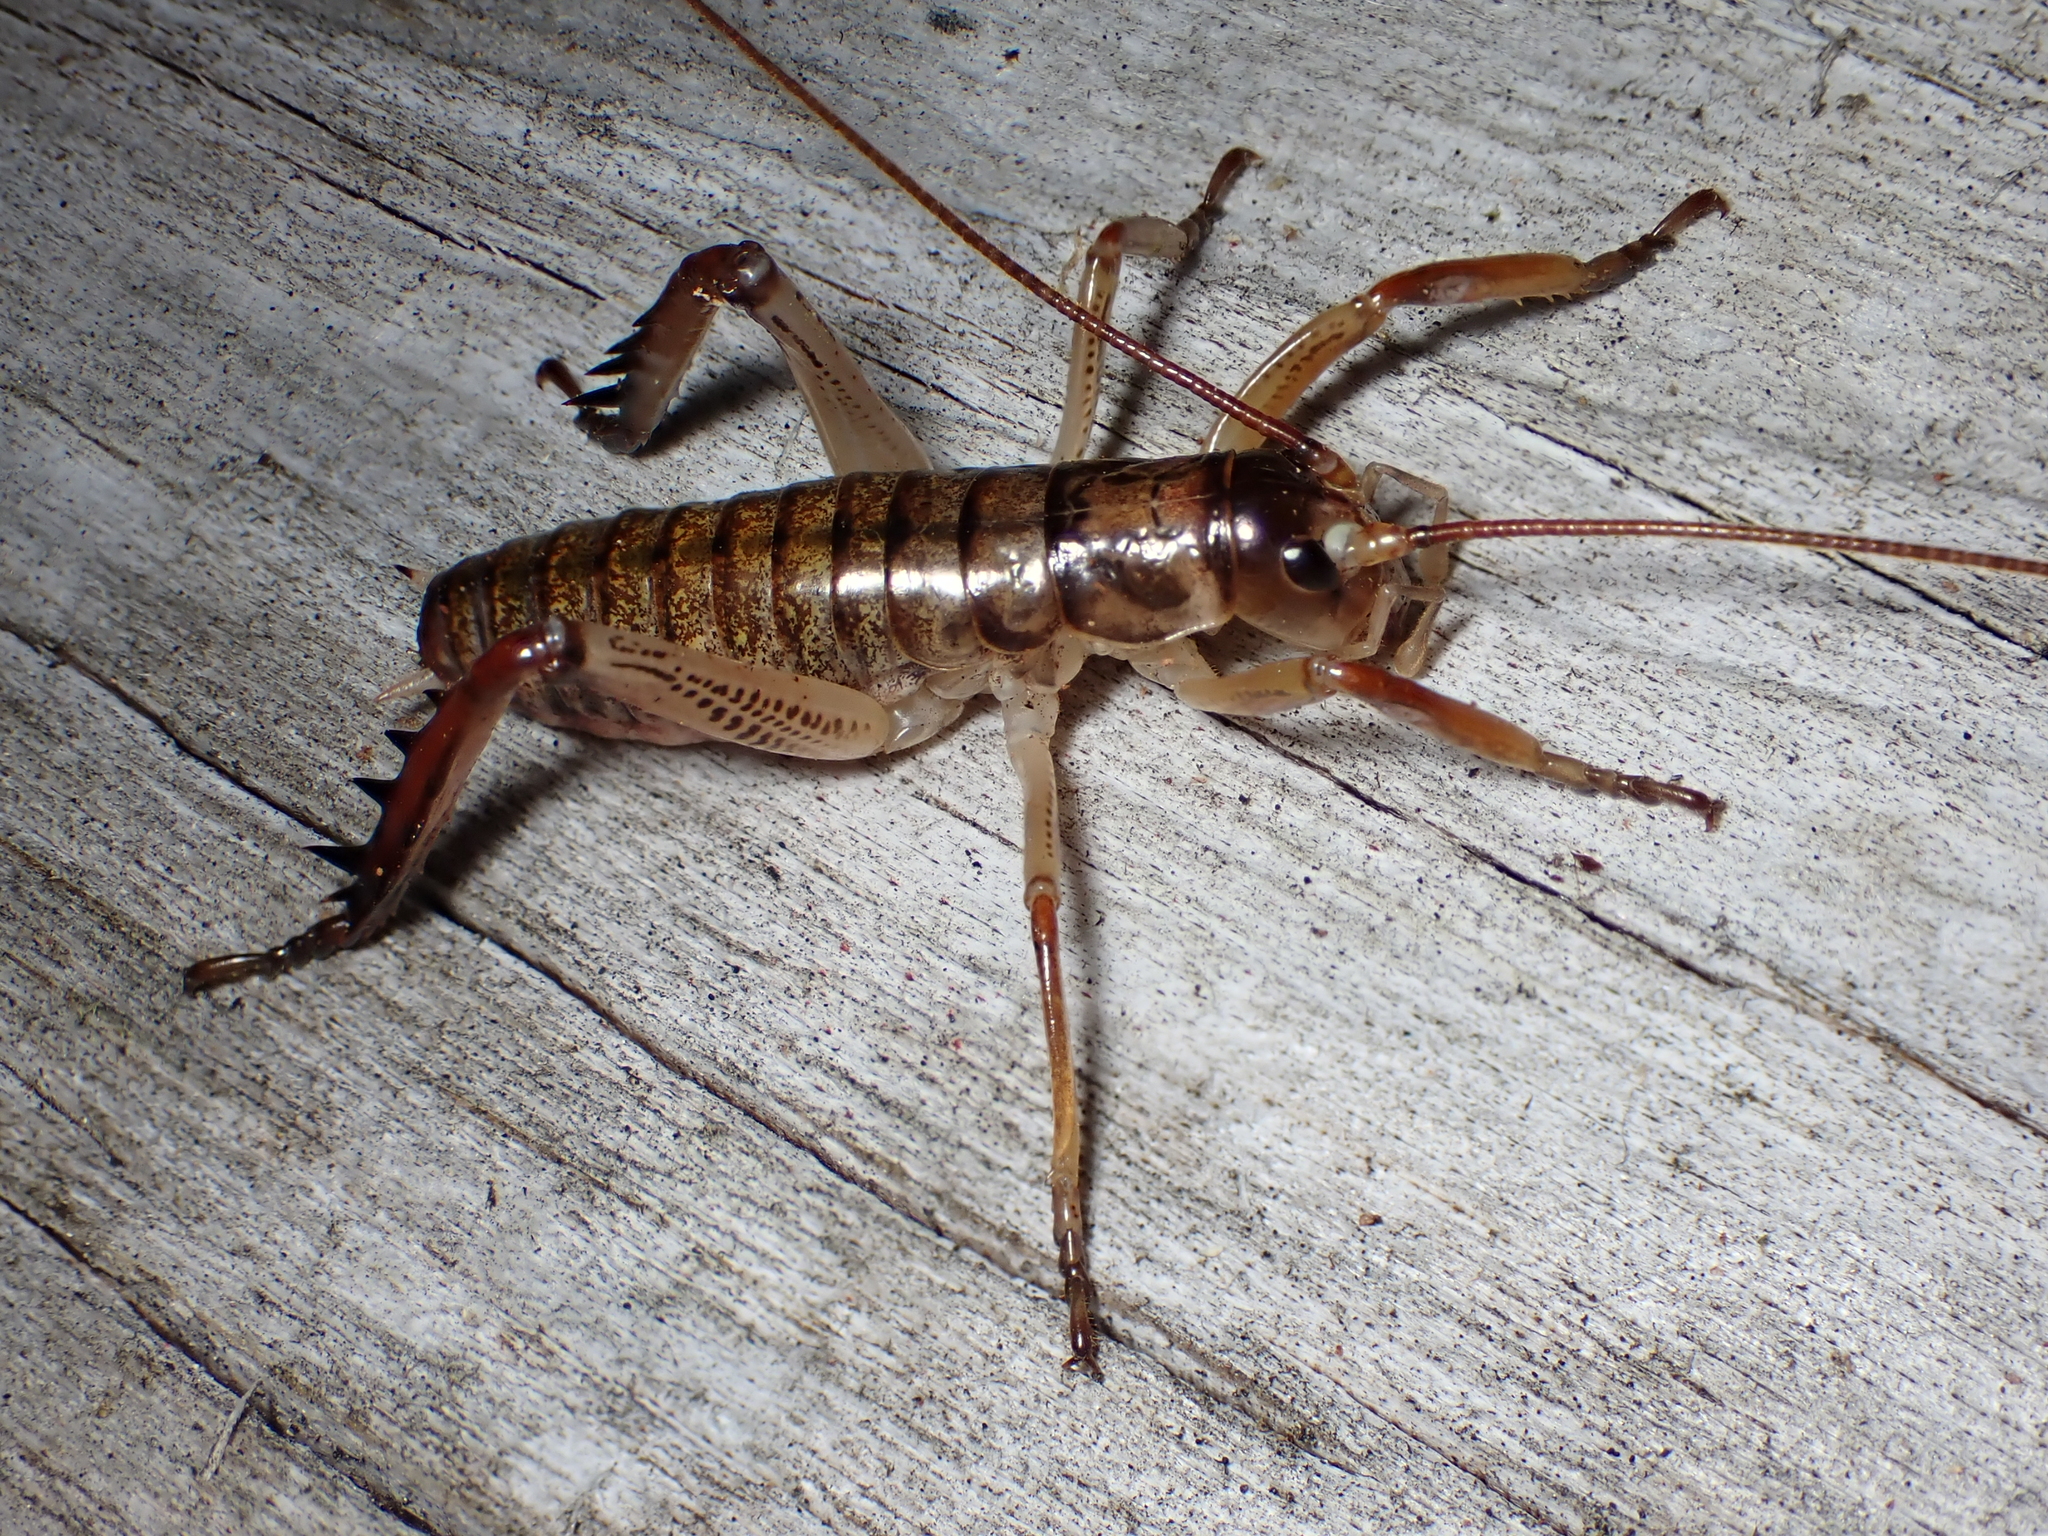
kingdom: Animalia
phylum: Arthropoda
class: Insecta
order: Orthoptera
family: Anostostomatidae
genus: Hemideina
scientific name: Hemideina thoracica
